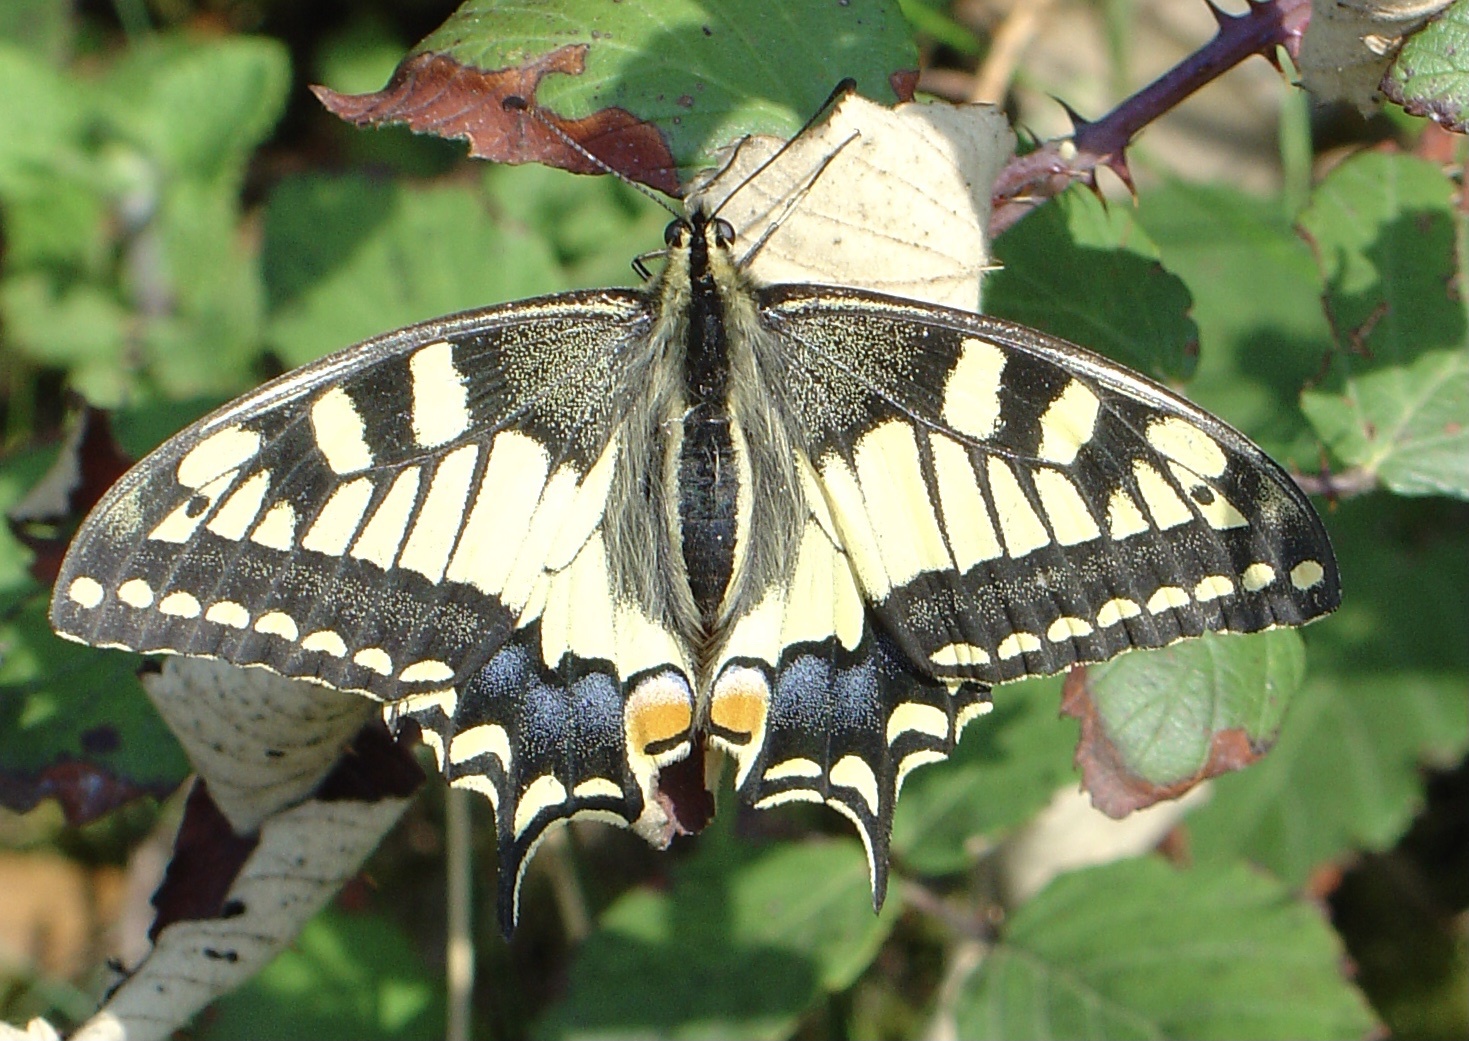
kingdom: Animalia
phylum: Arthropoda
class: Insecta
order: Lepidoptera
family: Papilionidae
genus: Papilio
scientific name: Papilio machaon
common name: Swallowtail
